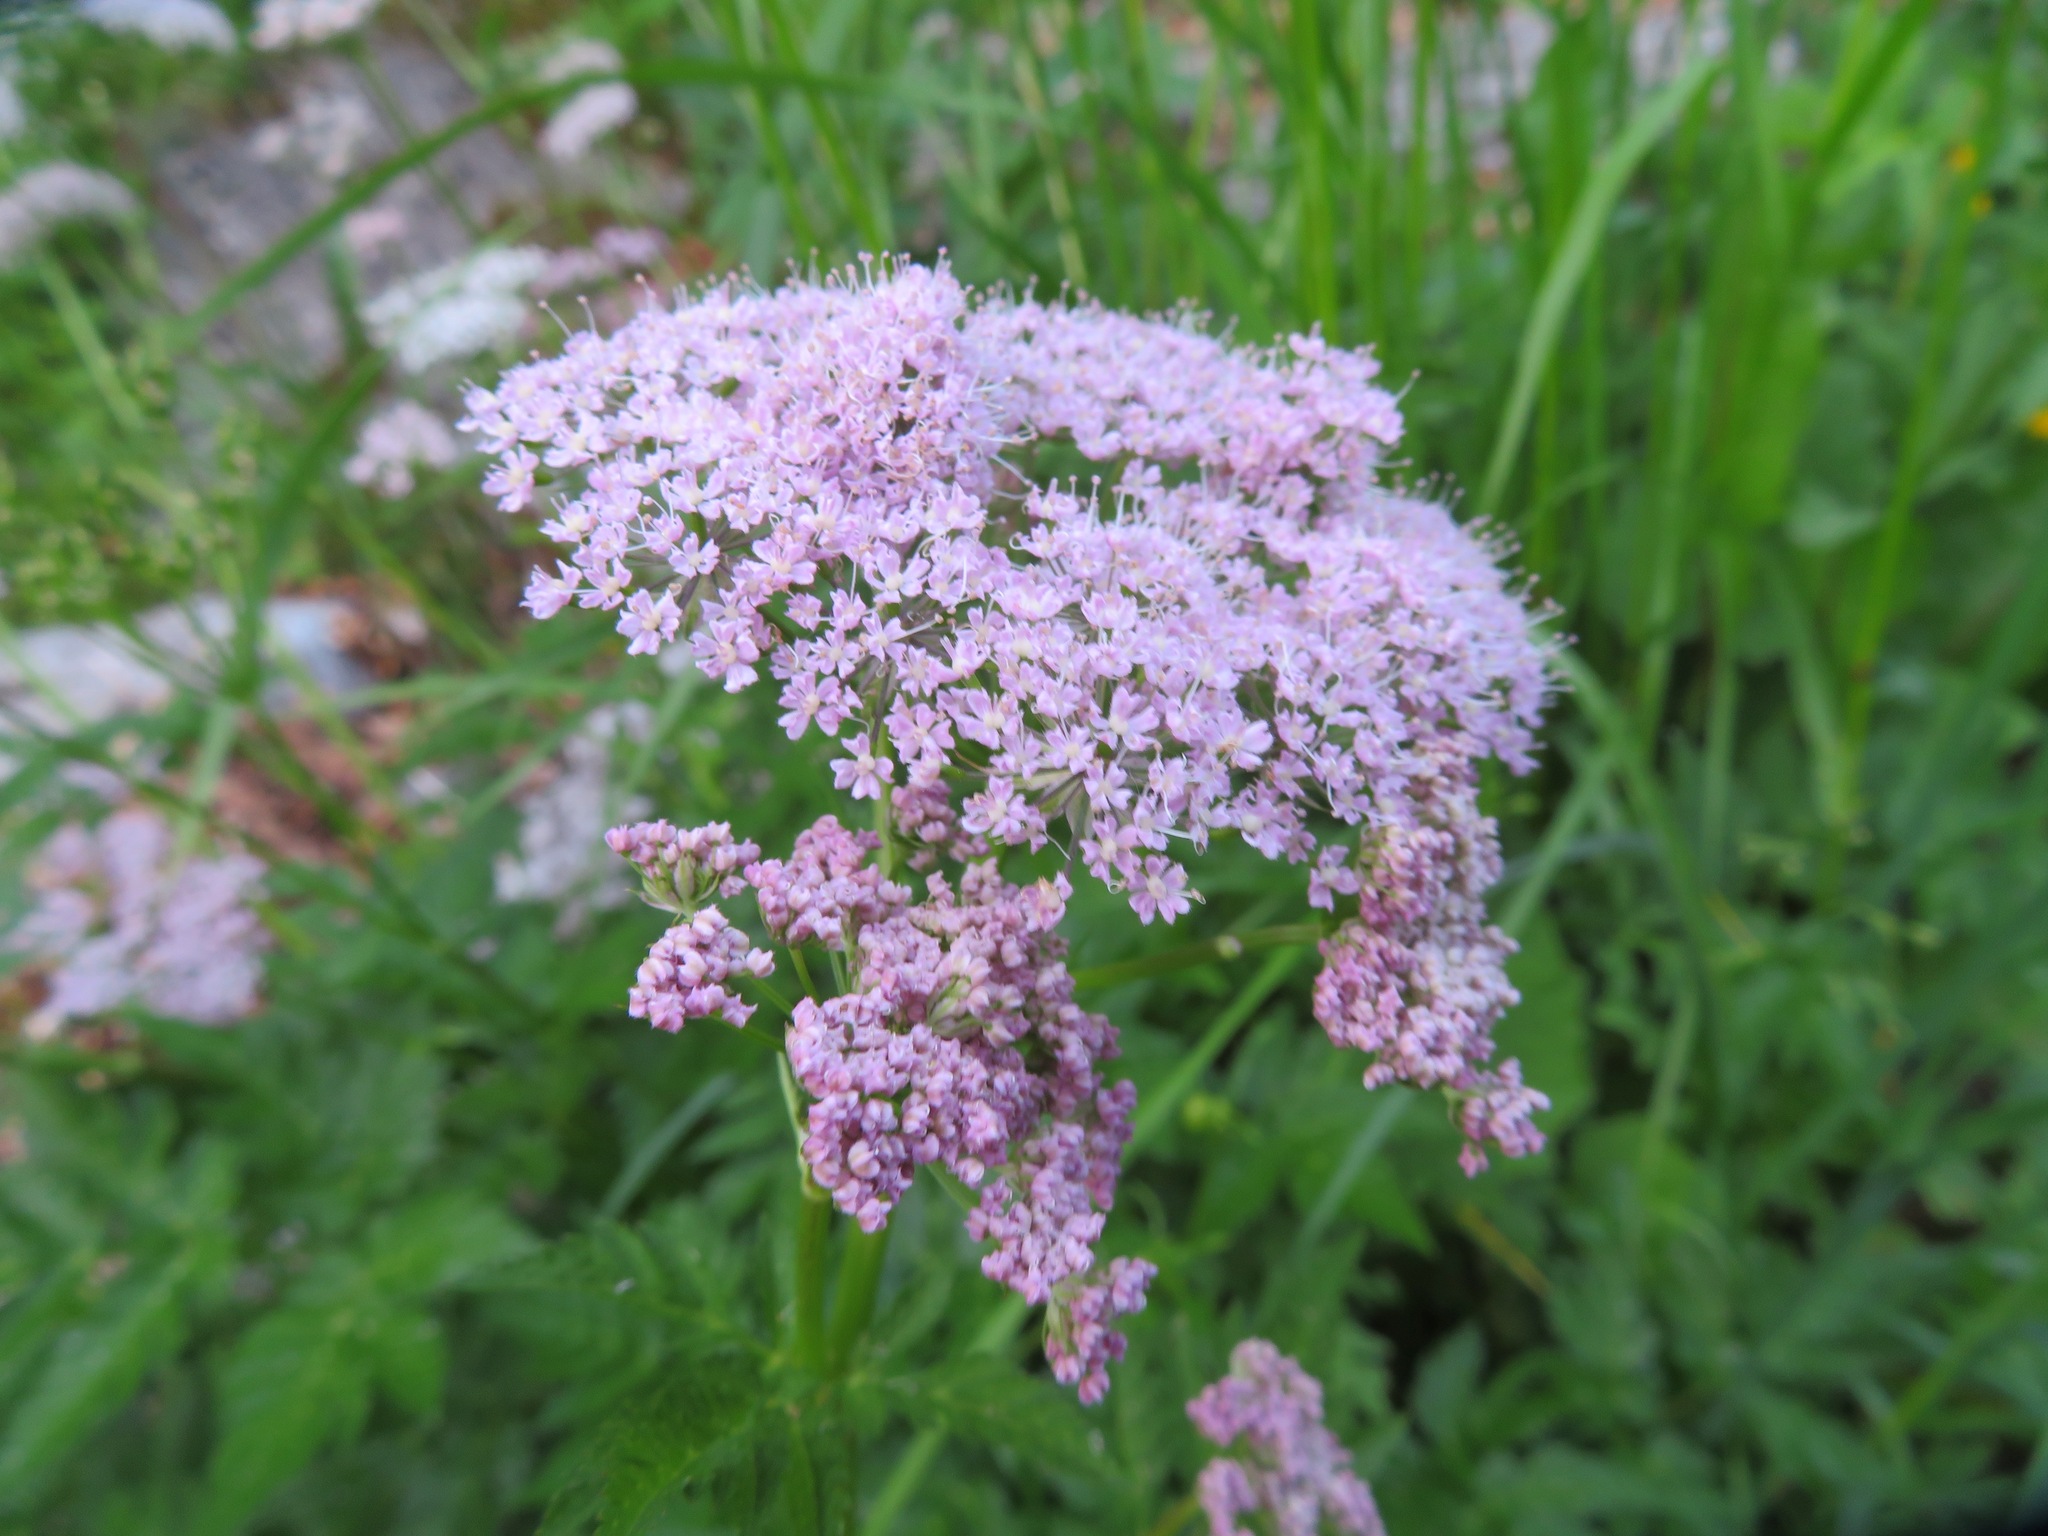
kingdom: Plantae
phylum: Tracheophyta
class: Magnoliopsida
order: Apiales
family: Apiaceae
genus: Chaerophyllum
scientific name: Chaerophyllum hirsutum
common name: Hairy chervil
